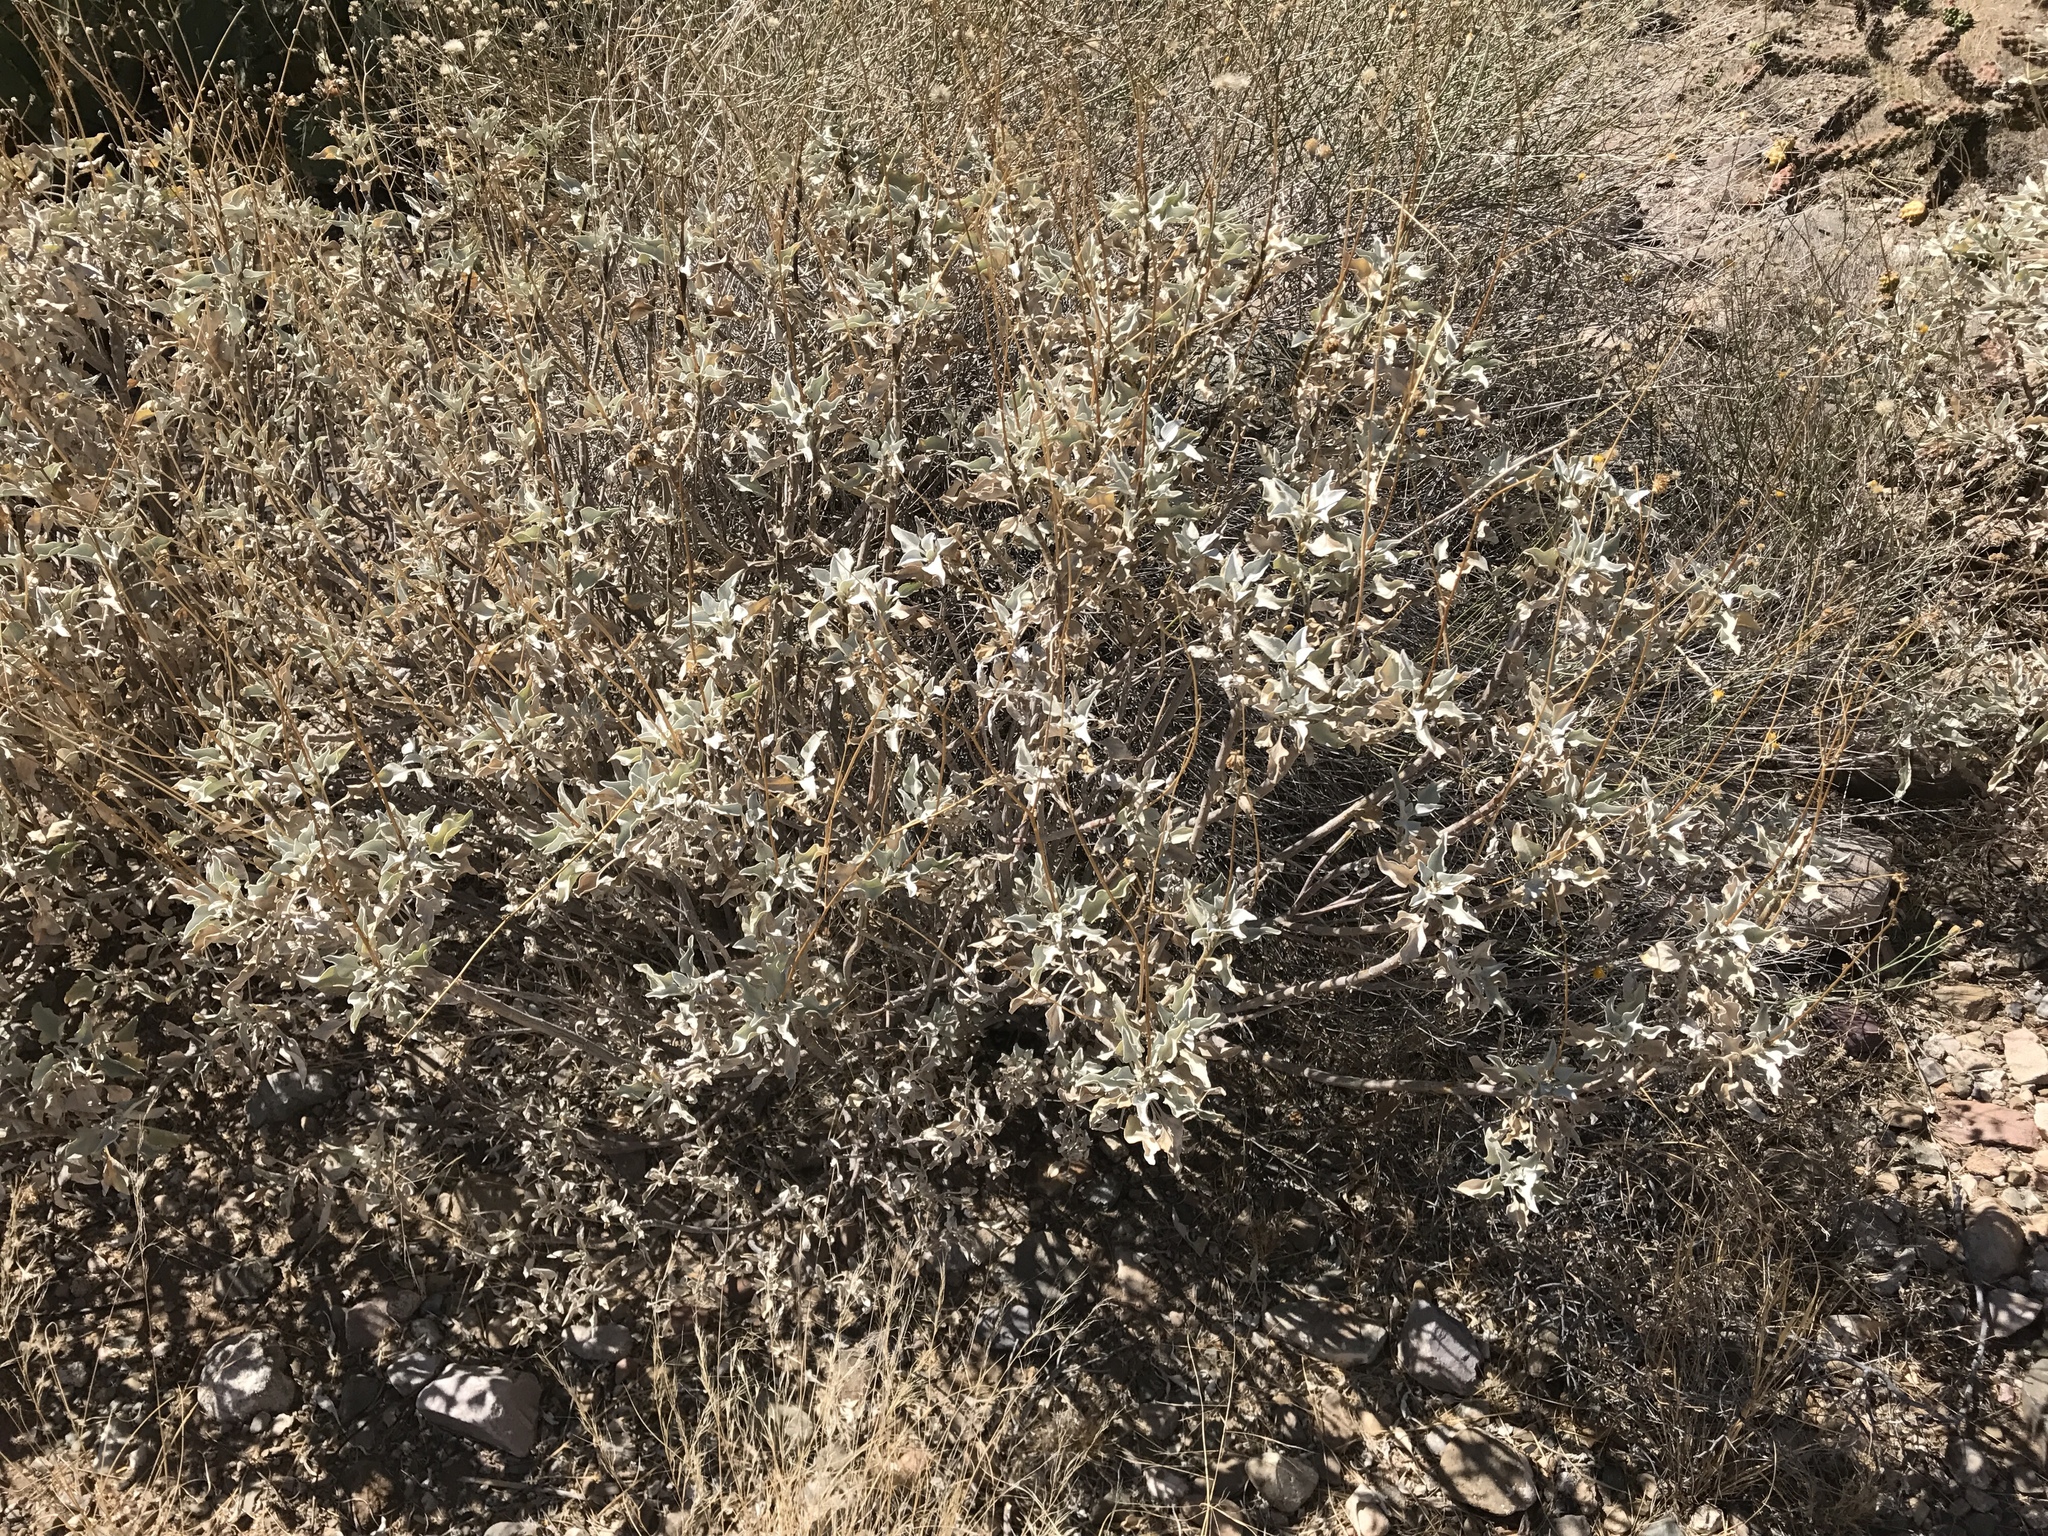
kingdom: Plantae
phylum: Tracheophyta
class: Magnoliopsida
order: Asterales
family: Asteraceae
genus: Encelia
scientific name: Encelia farinosa
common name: Brittlebush
